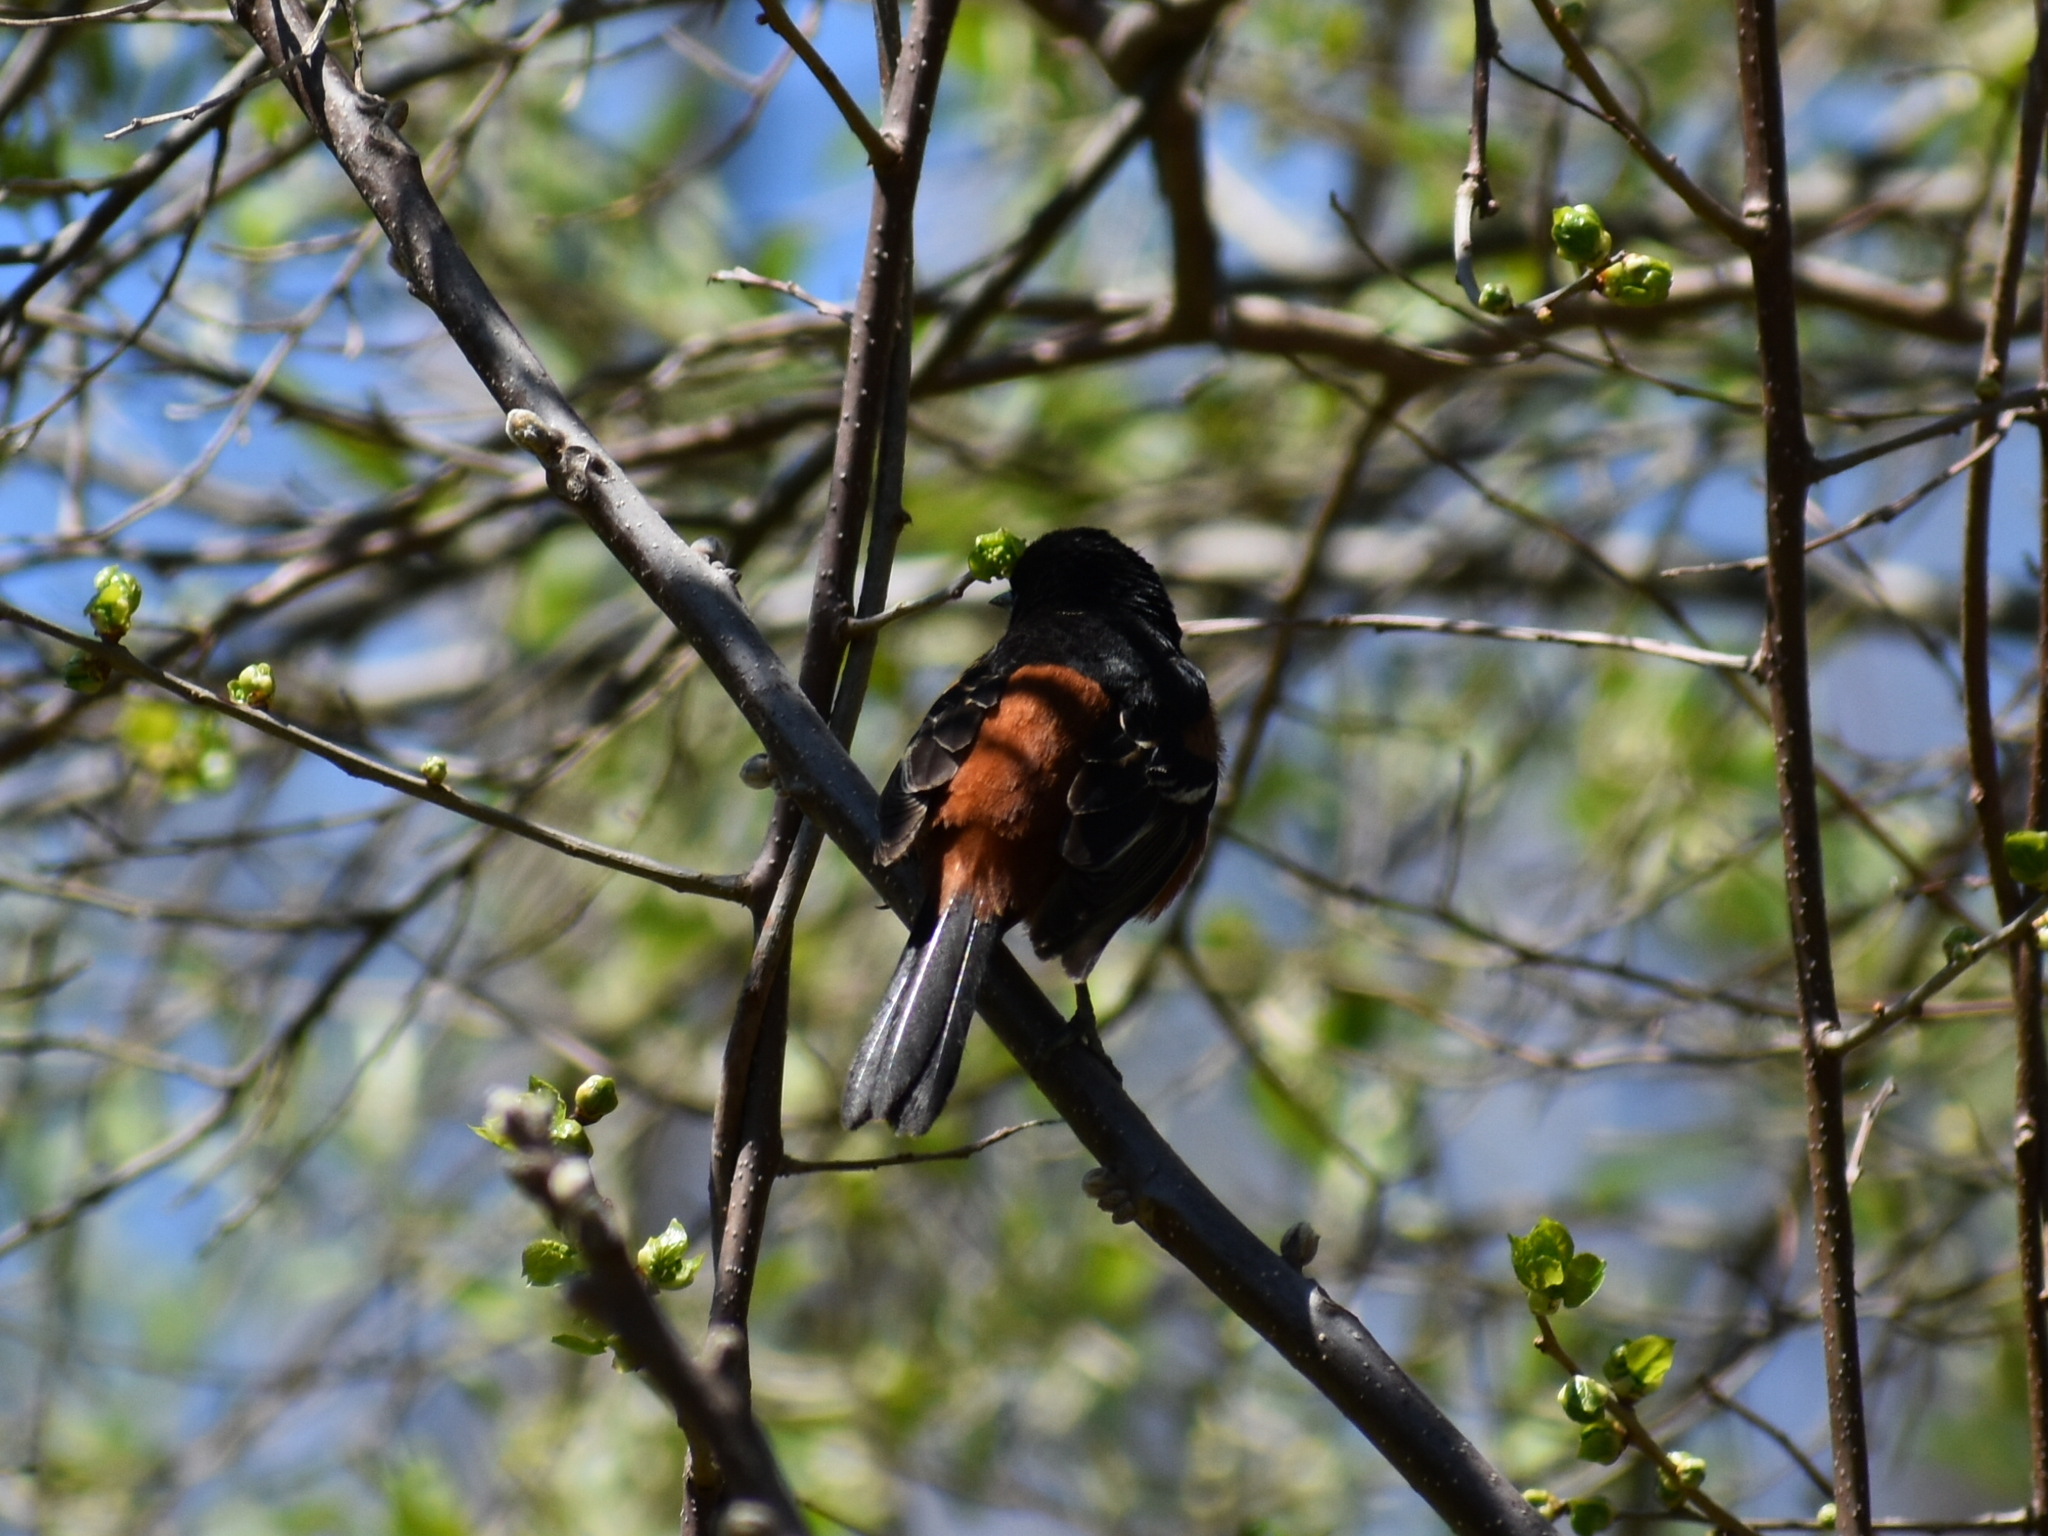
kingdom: Animalia
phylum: Chordata
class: Aves
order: Passeriformes
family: Icteridae
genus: Icterus
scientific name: Icterus spurius
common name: Orchard oriole
